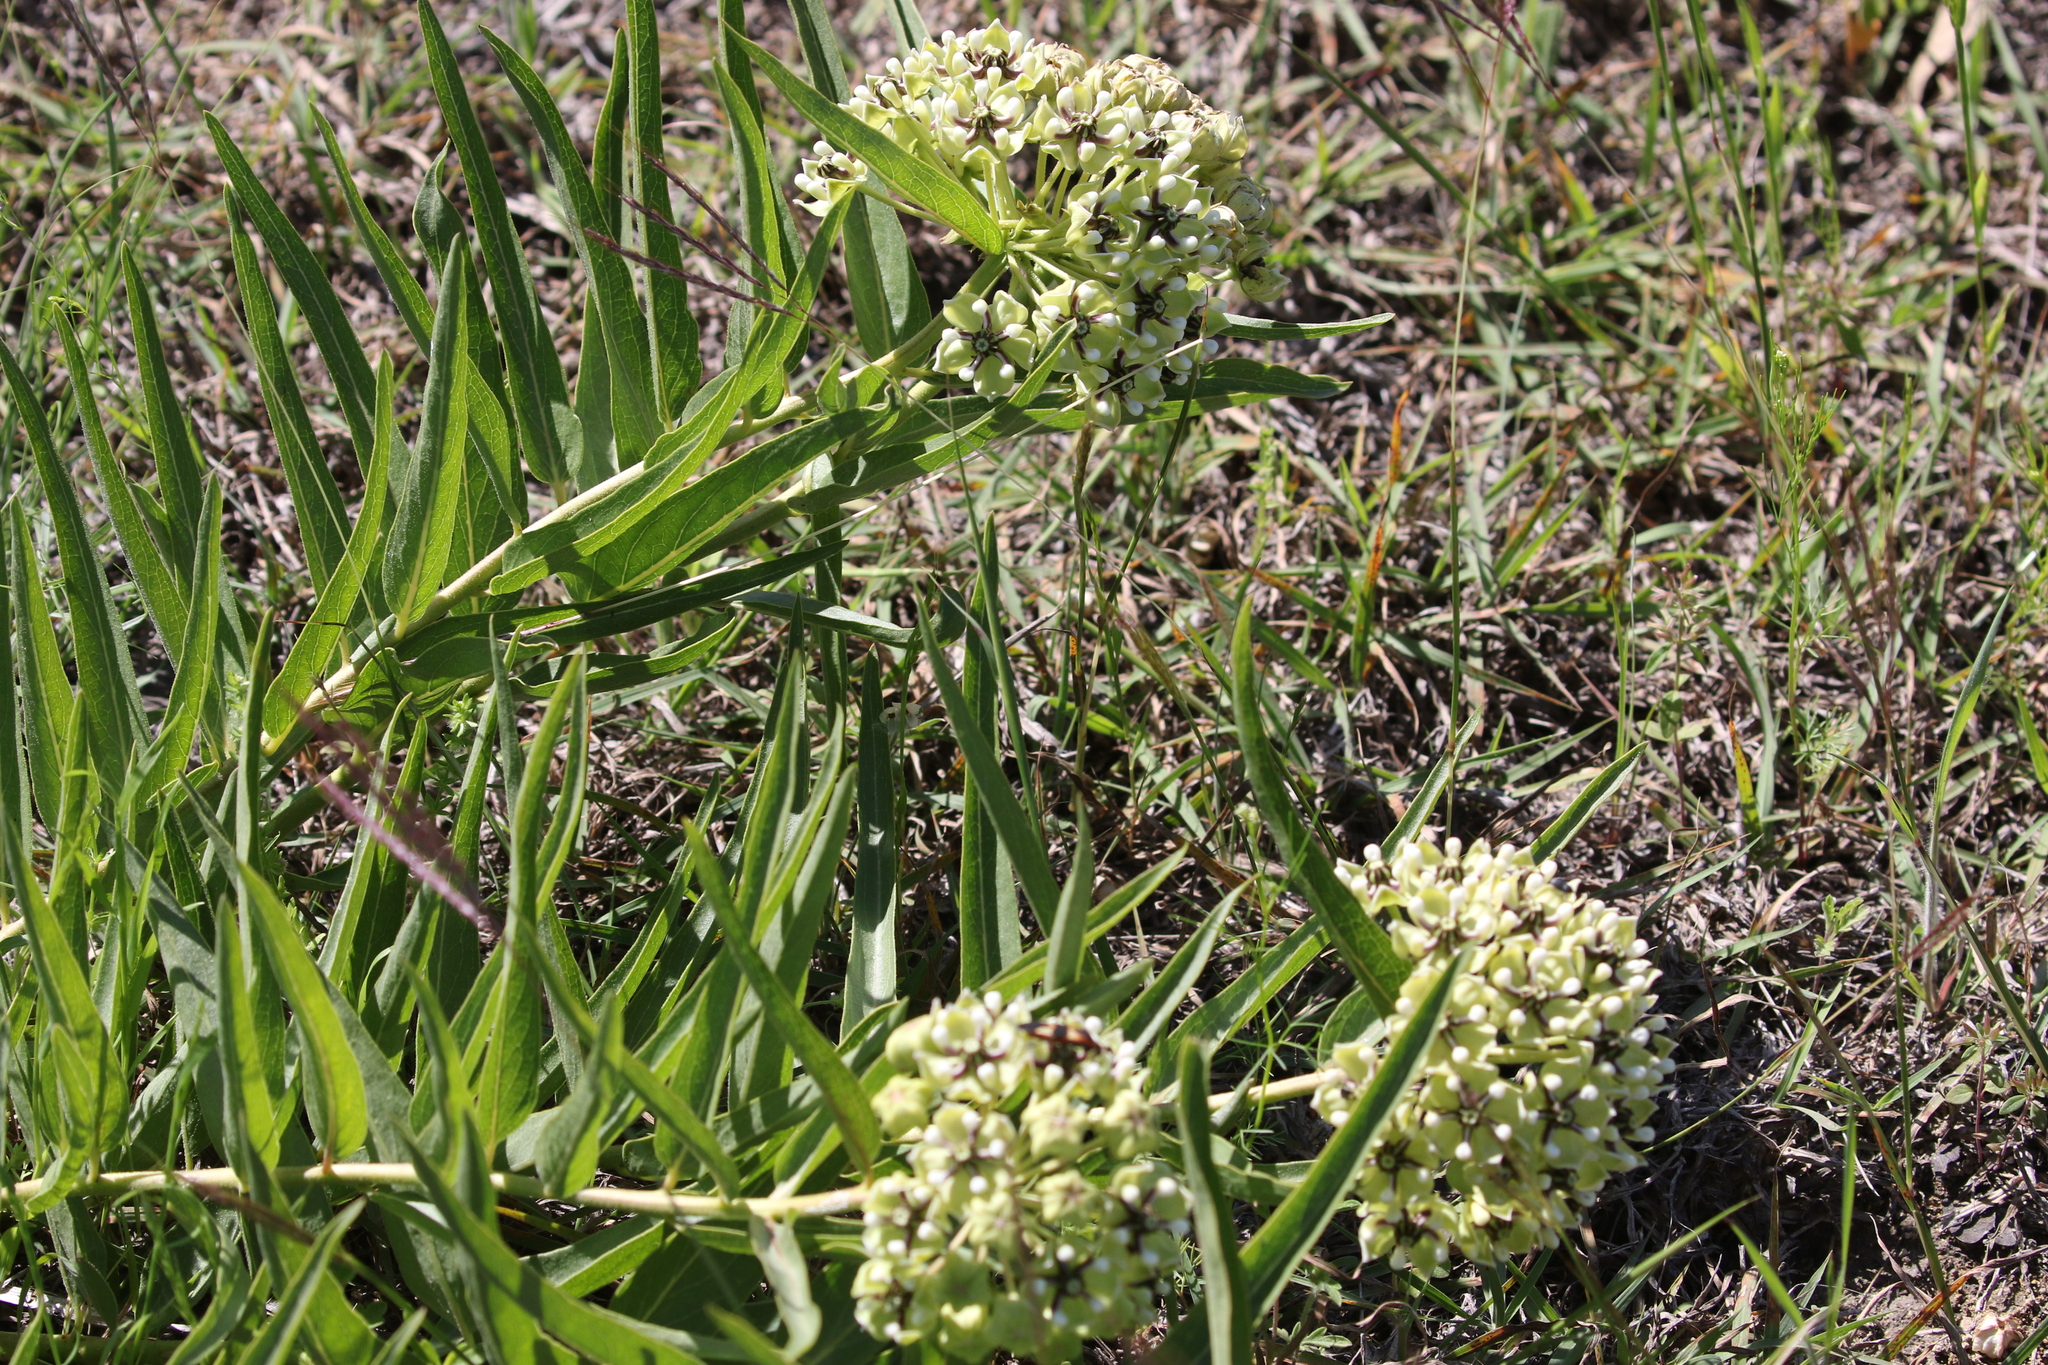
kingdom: Plantae
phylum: Tracheophyta
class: Magnoliopsida
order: Gentianales
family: Apocynaceae
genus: Asclepias
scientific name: Asclepias asperula
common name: Antelope horns
